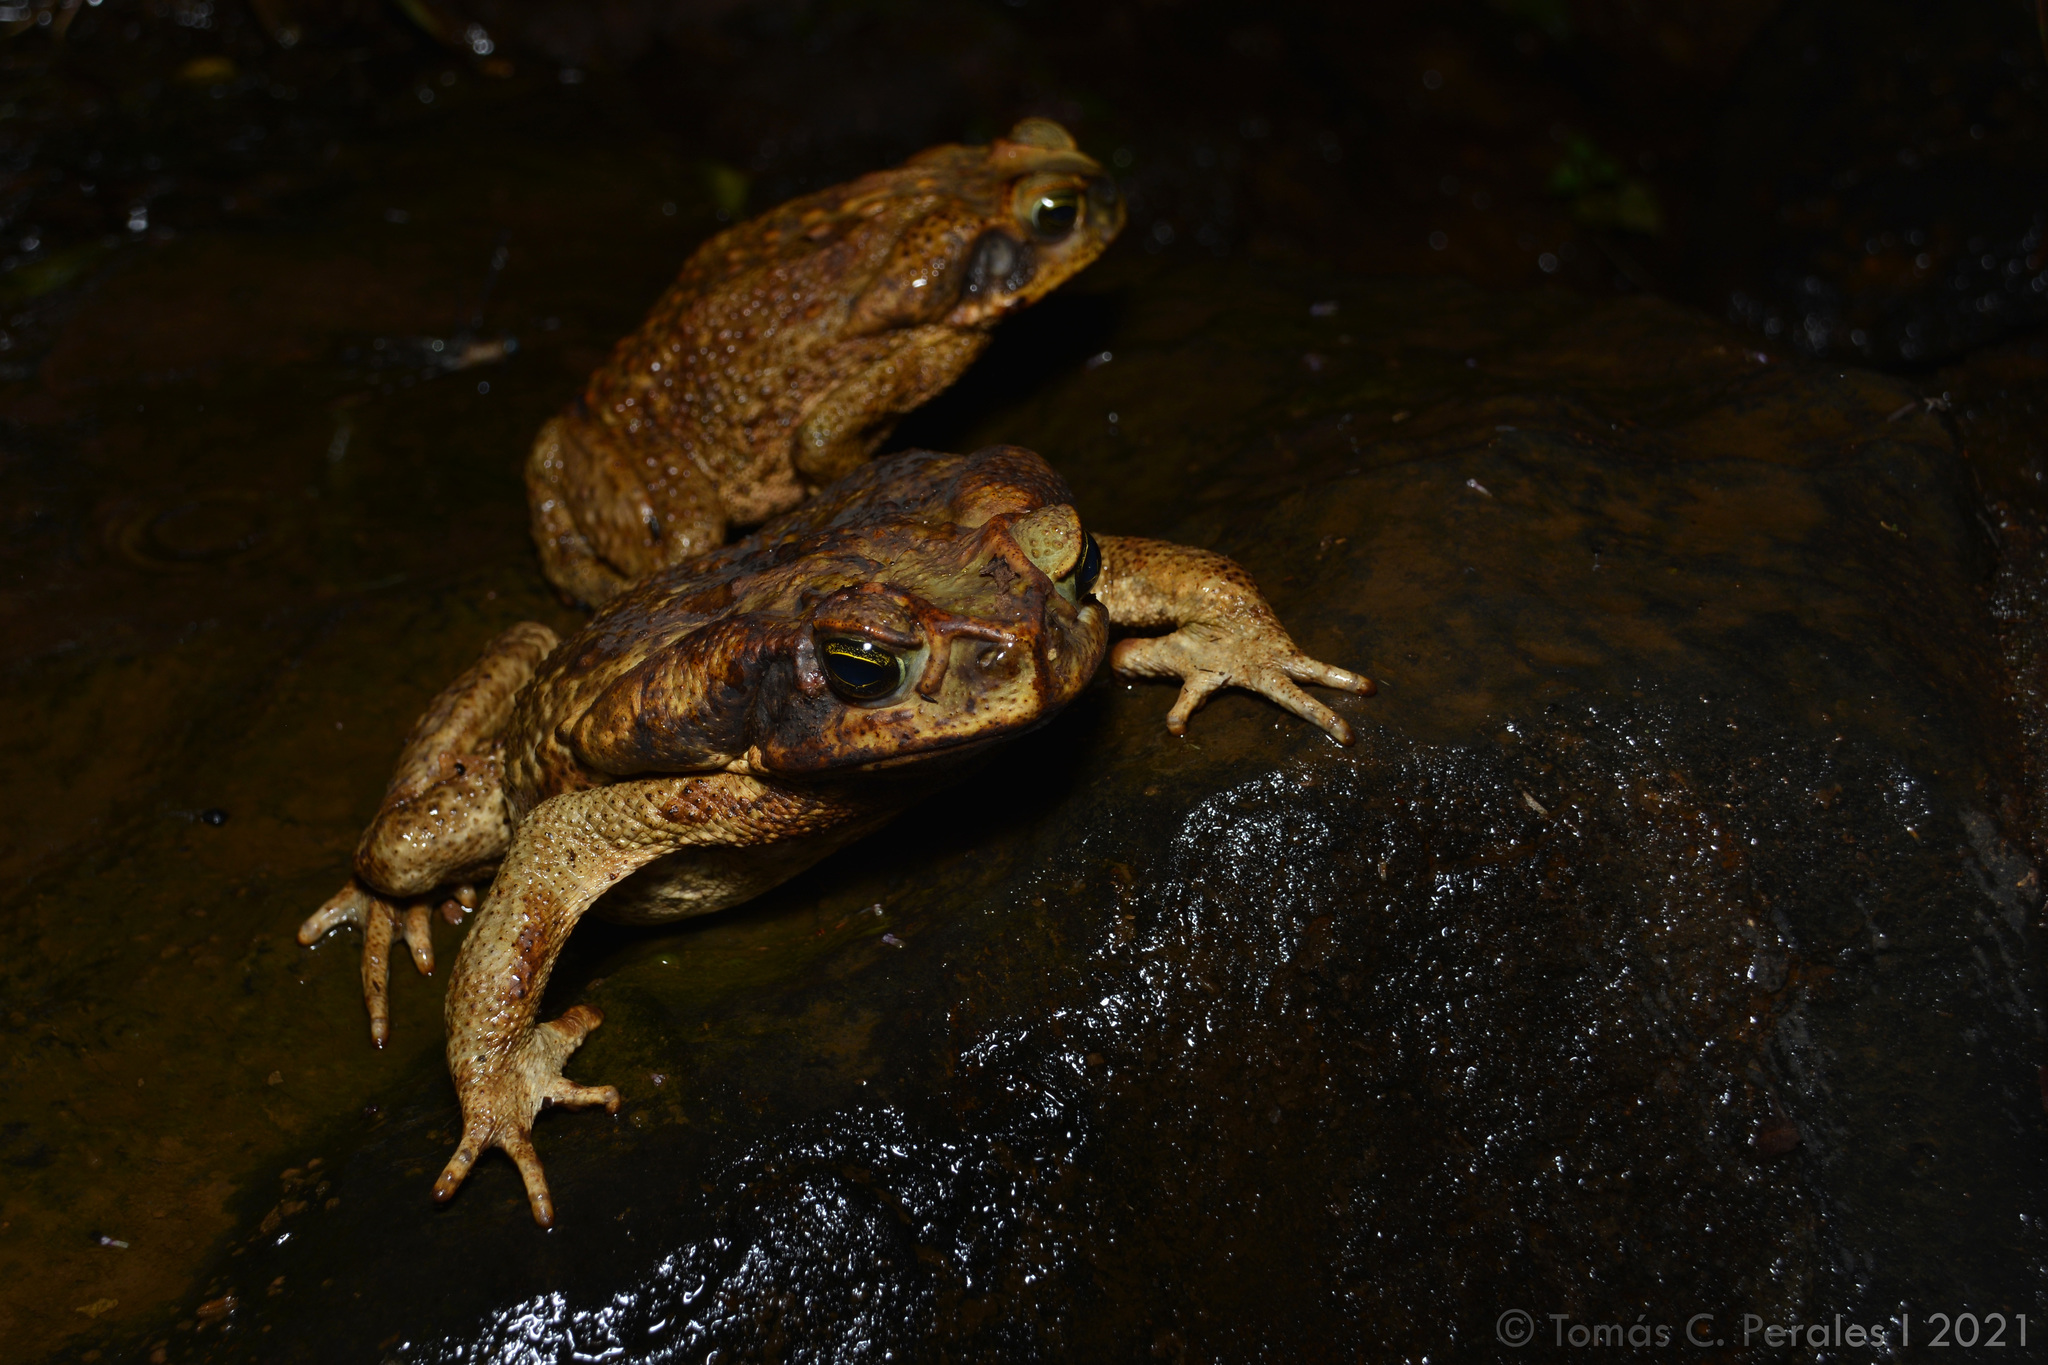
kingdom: Animalia
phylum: Chordata
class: Amphibia
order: Anura
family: Bufonidae
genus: Rhinella
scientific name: Rhinella diptycha
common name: Cope's toad
